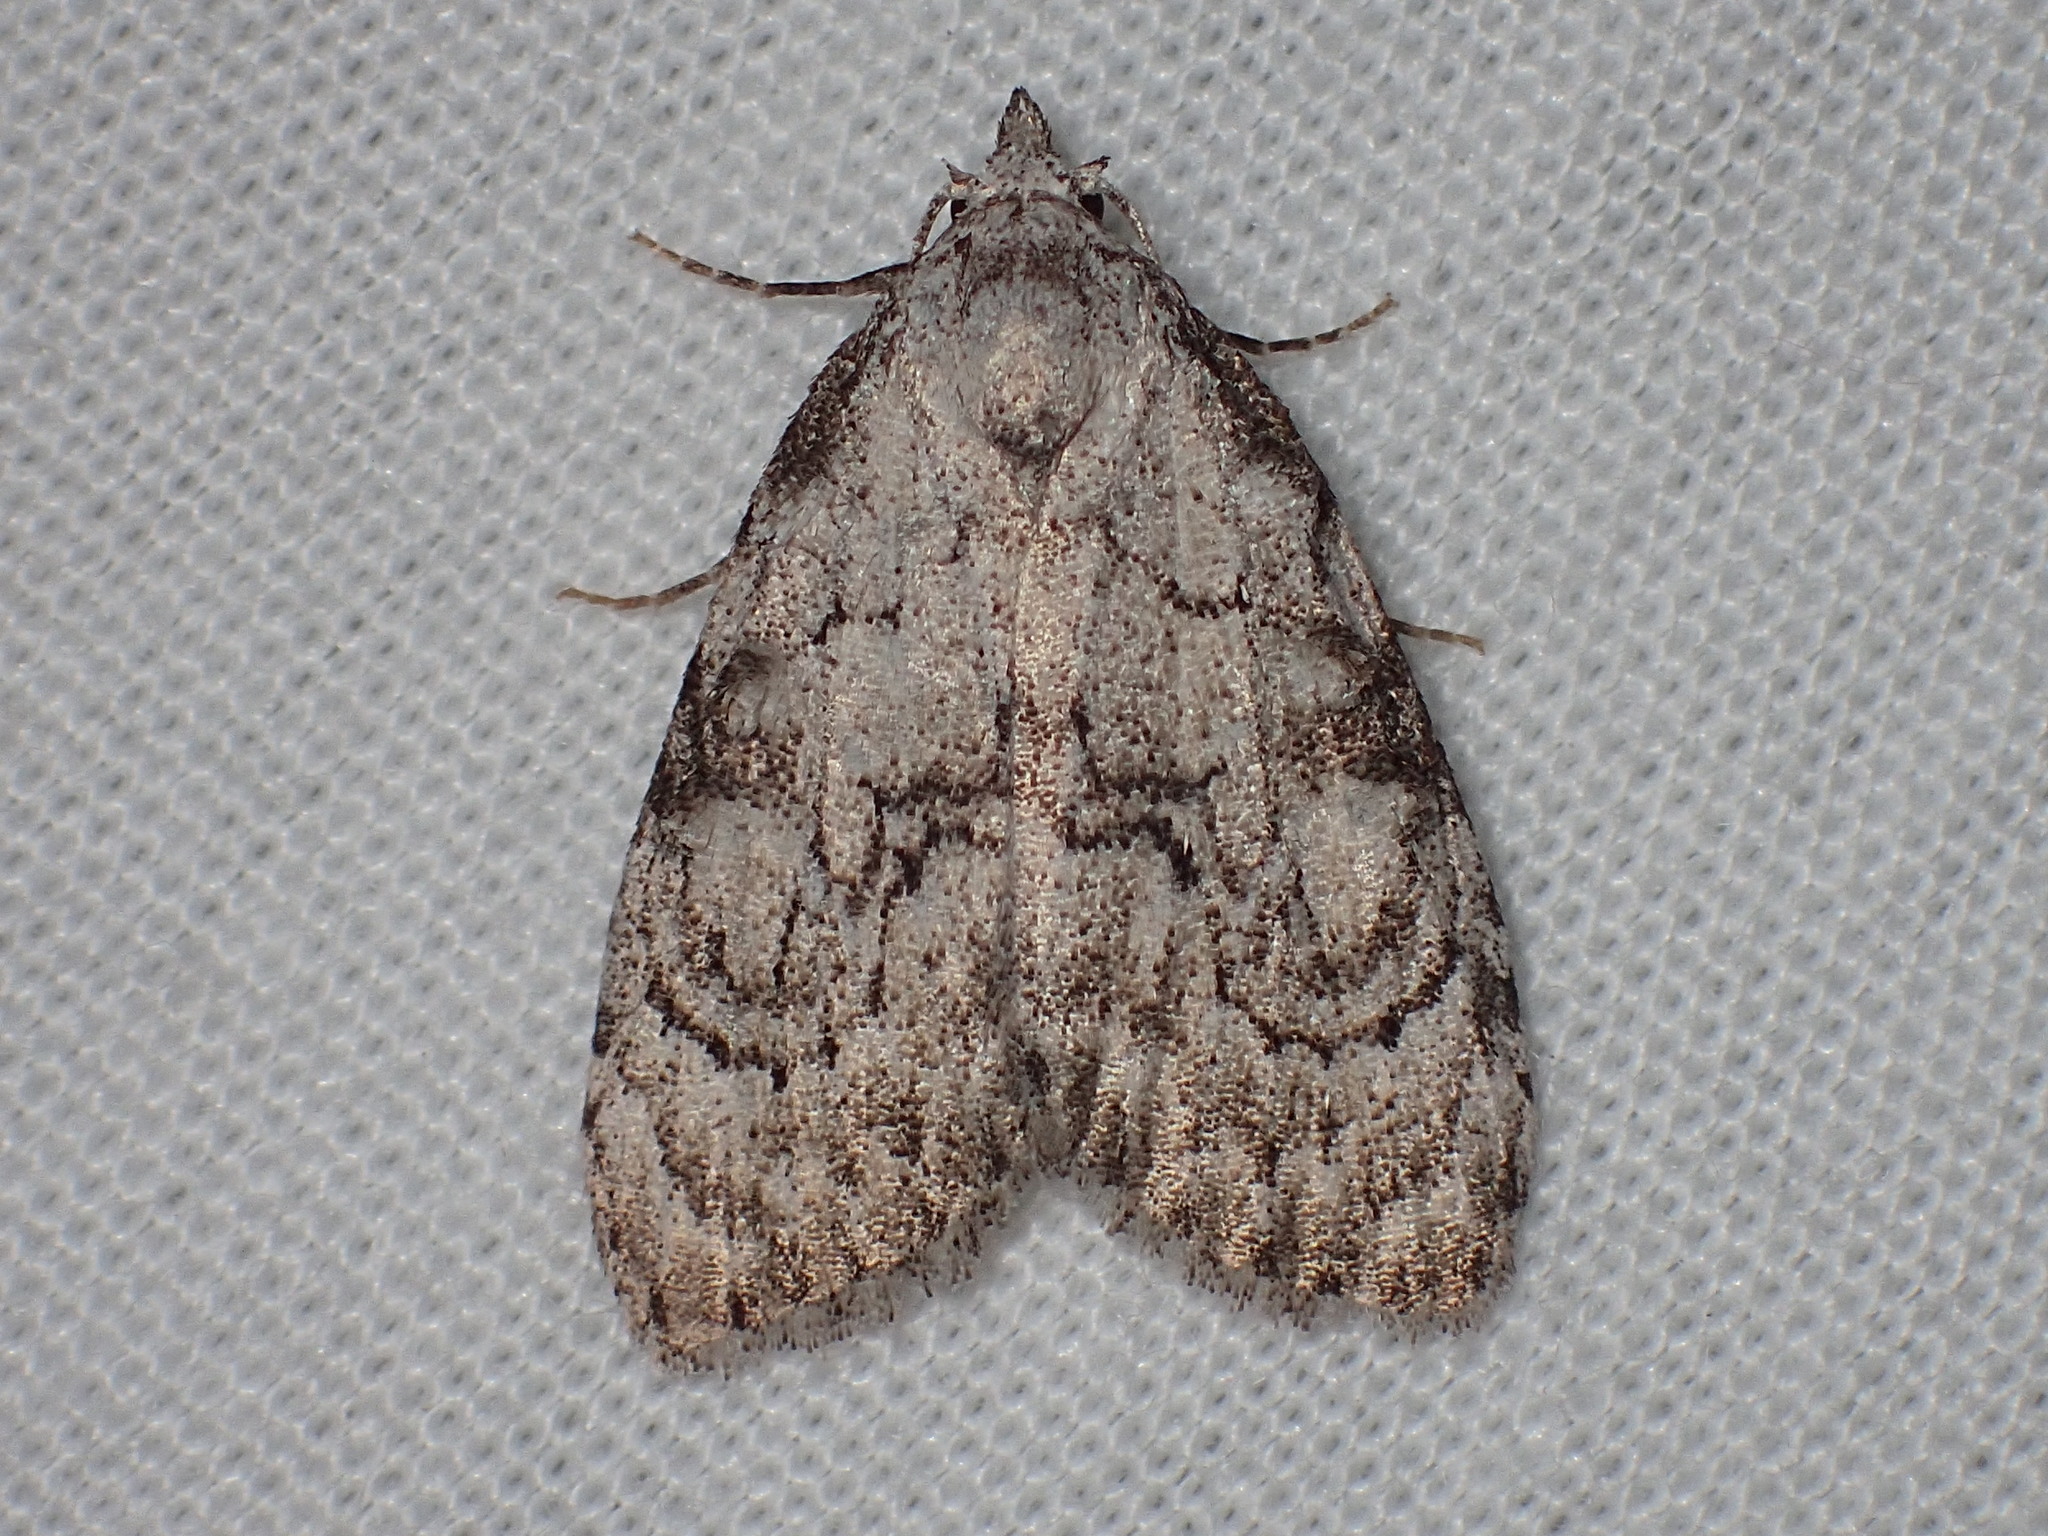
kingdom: Animalia
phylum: Arthropoda
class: Insecta
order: Lepidoptera
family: Nolidae
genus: Meganola
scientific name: Meganola minuscula
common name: Confused meganola moth
